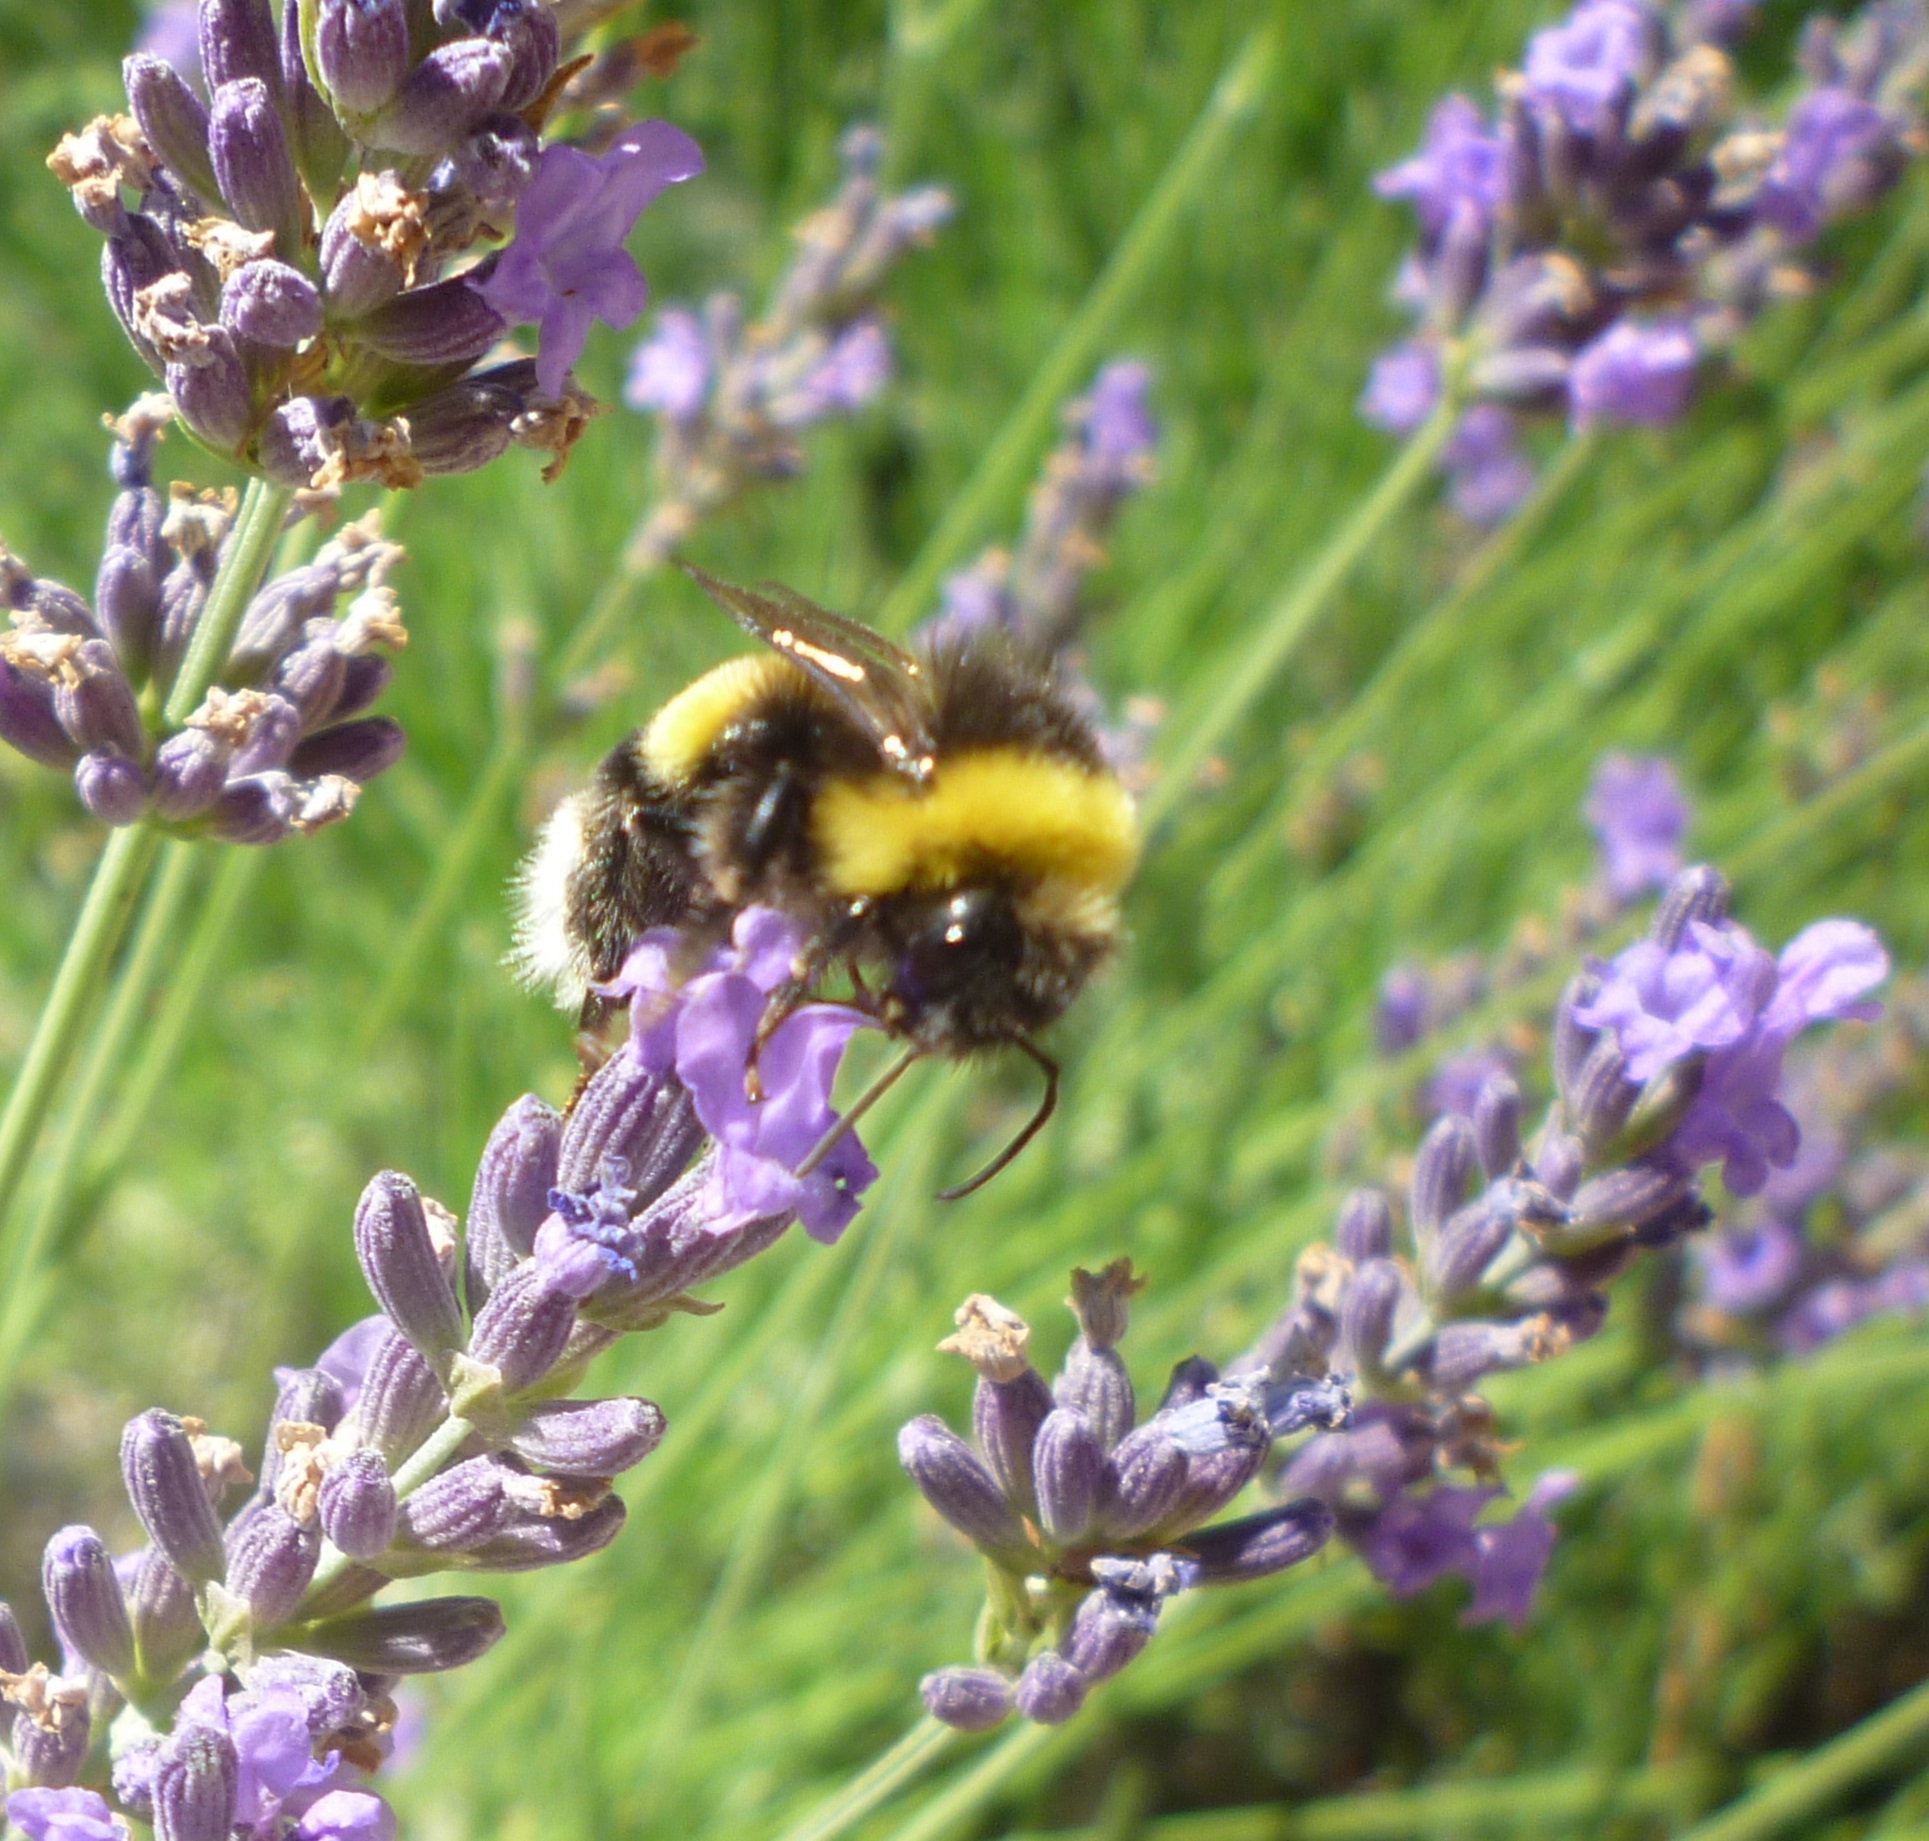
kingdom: Animalia
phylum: Arthropoda
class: Insecta
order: Hymenoptera
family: Apidae
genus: Bombus
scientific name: Bombus terrestris
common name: Buff-tailed bumblebee
